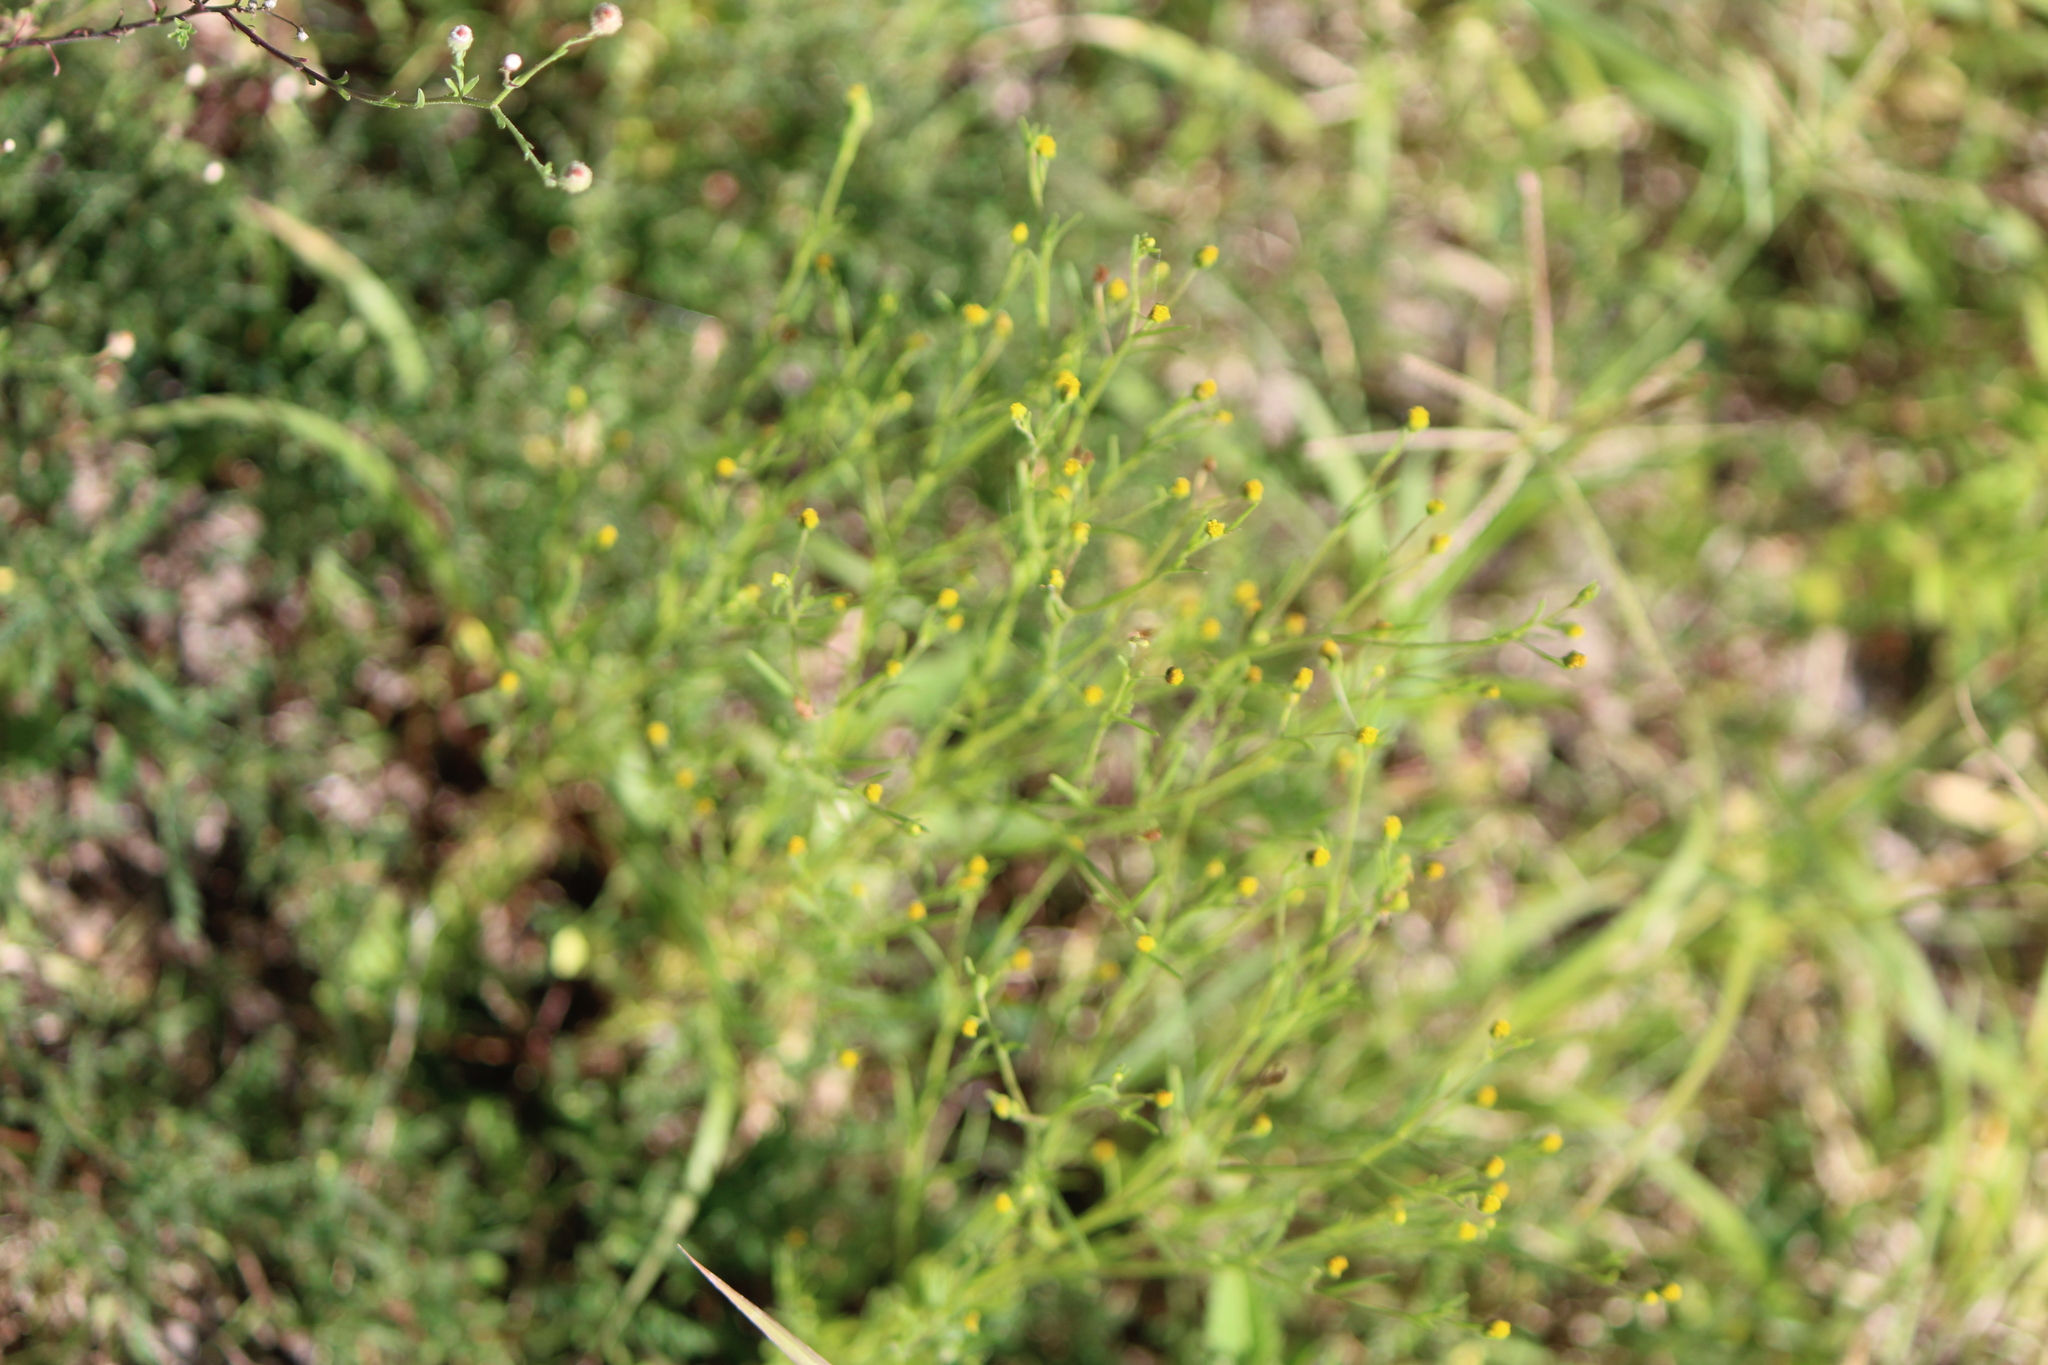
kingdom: Plantae
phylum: Tracheophyta
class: Magnoliopsida
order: Asterales
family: Asteraceae
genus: Schkuhria
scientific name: Schkuhria pinnata
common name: Dwarf marigold
